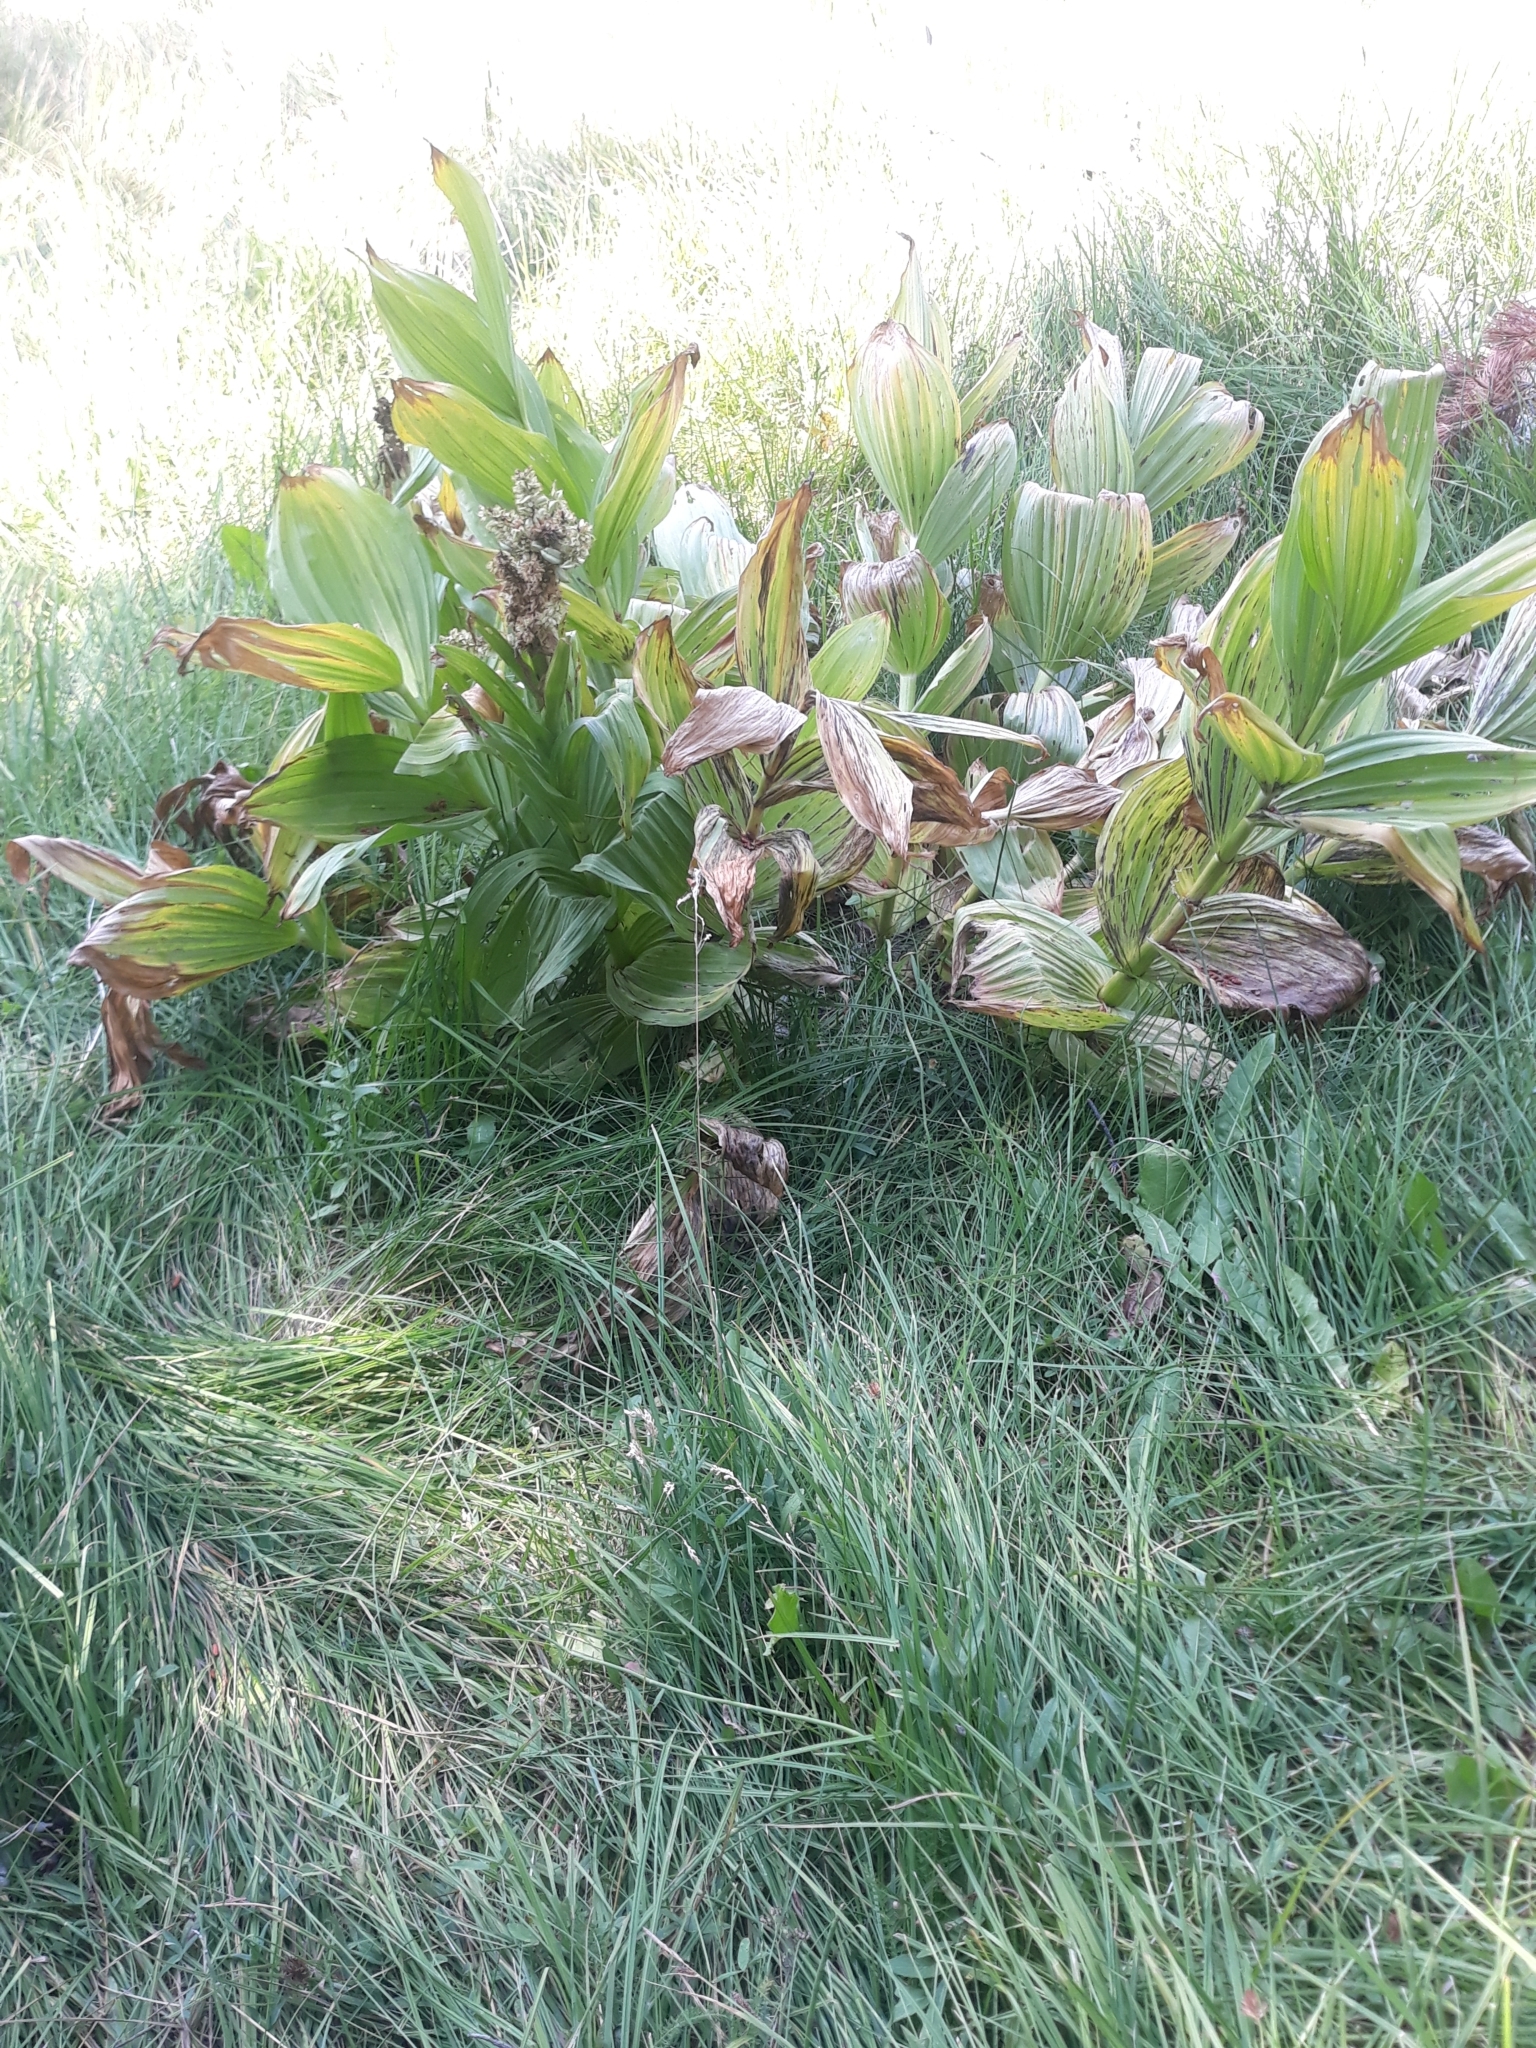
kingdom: Plantae
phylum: Tracheophyta
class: Liliopsida
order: Liliales
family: Melanthiaceae
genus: Veratrum
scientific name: Veratrum californicum
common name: California veratrum
